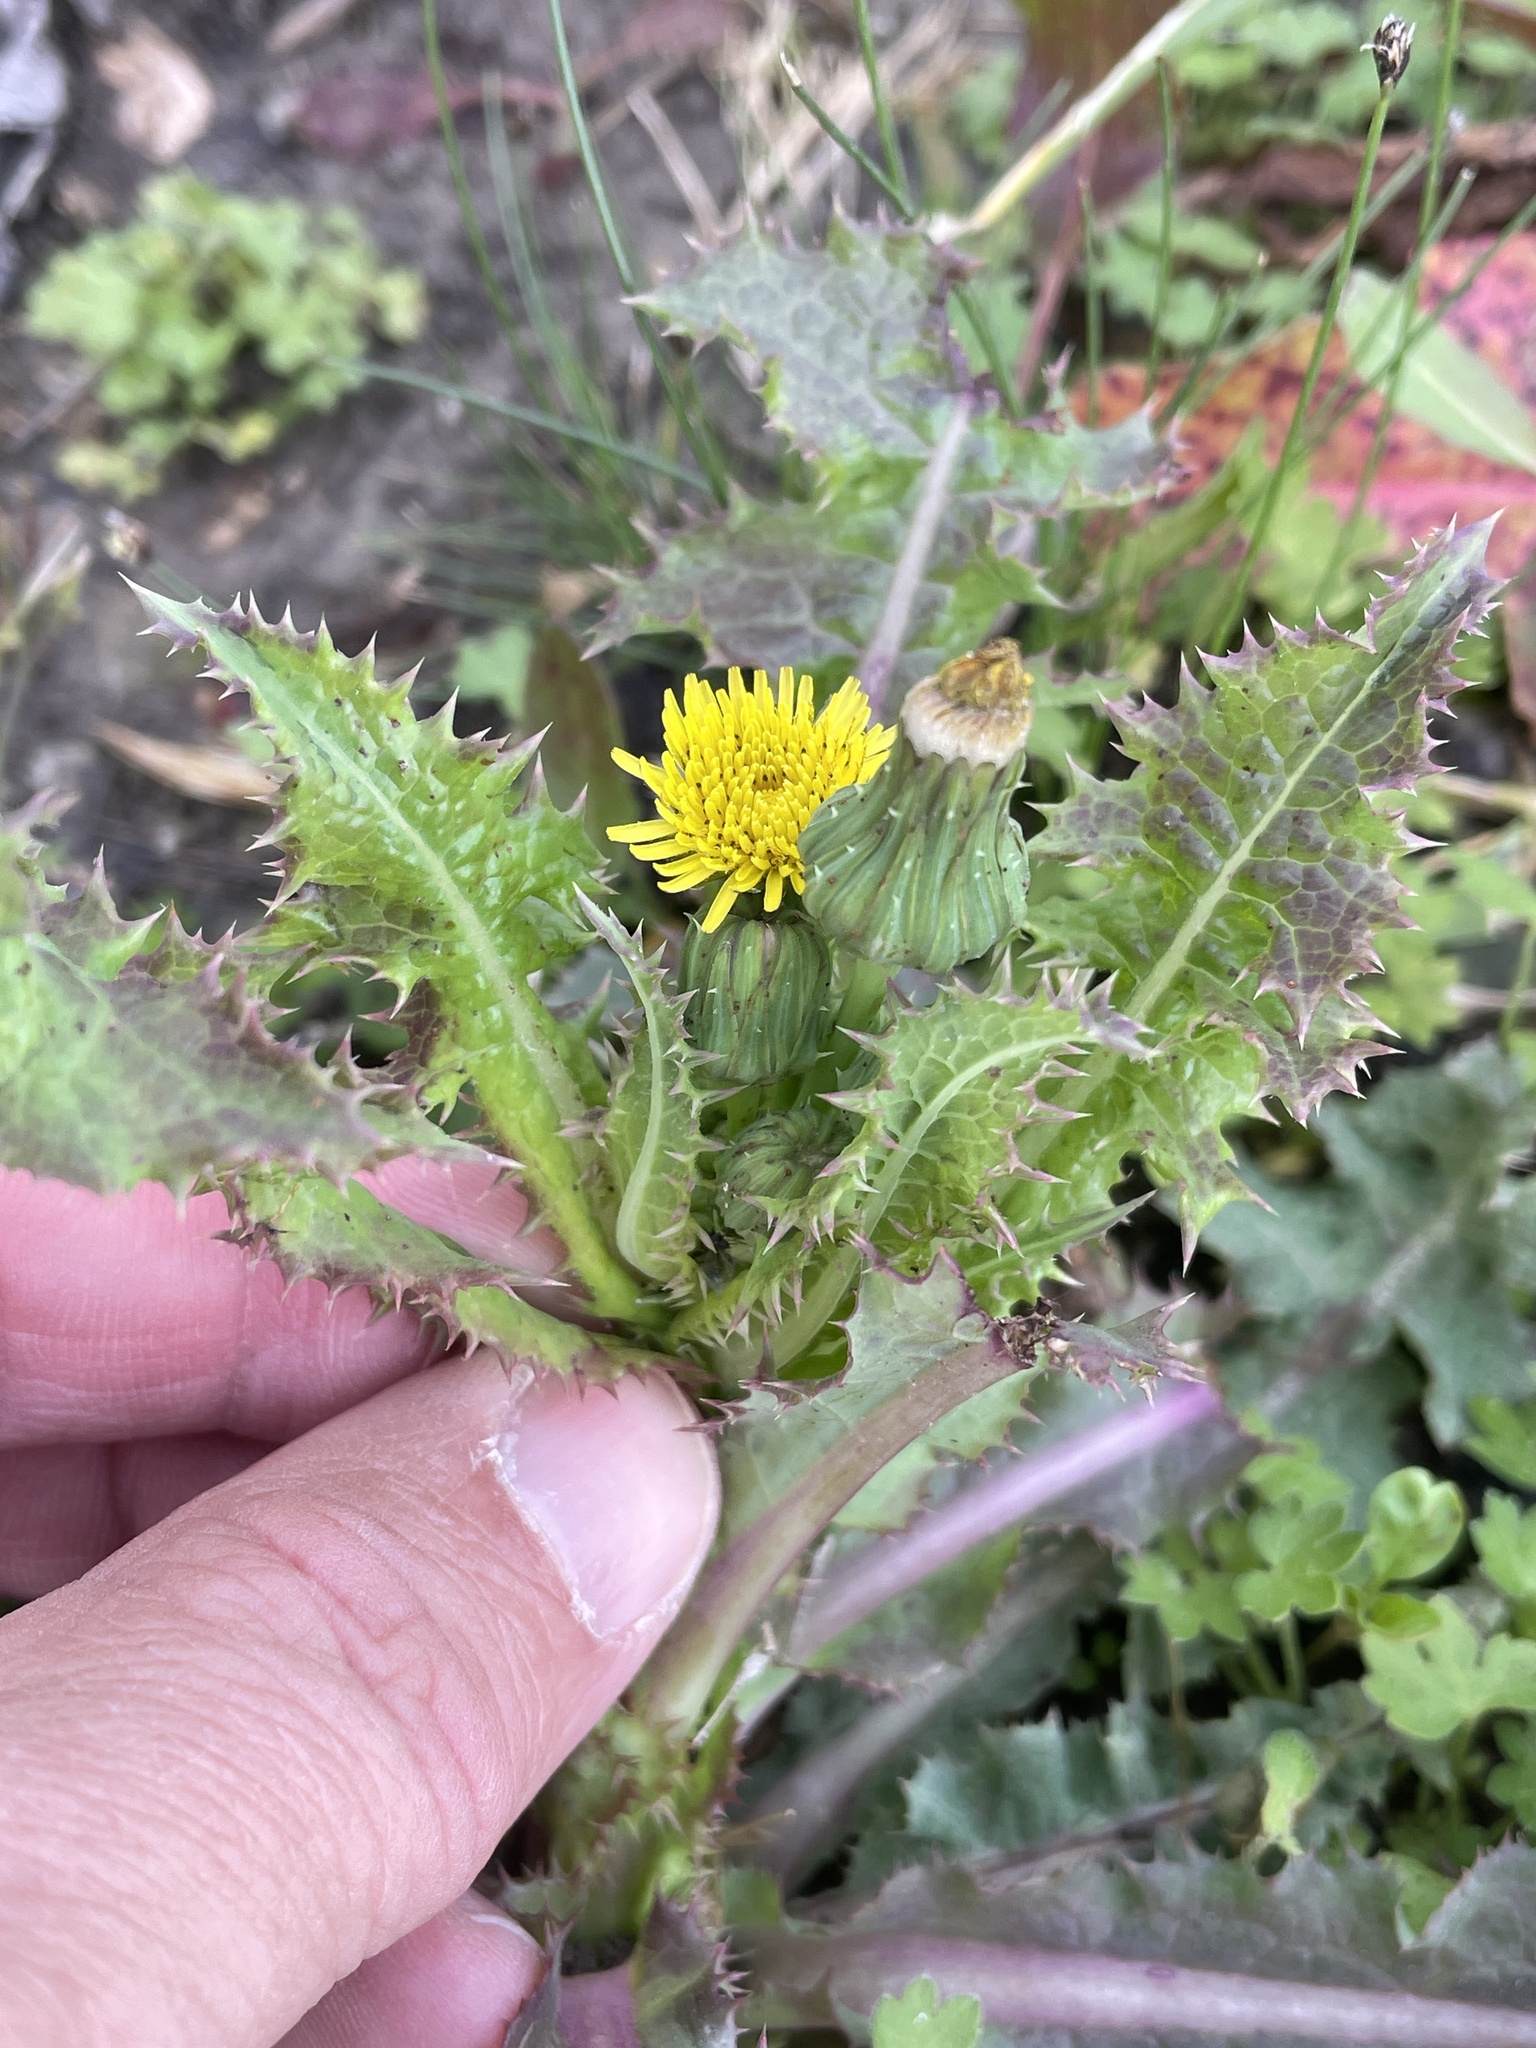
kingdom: Plantae
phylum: Tracheophyta
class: Magnoliopsida
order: Asterales
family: Asteraceae
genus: Sonchus
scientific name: Sonchus asper
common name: Prickly sow-thistle
